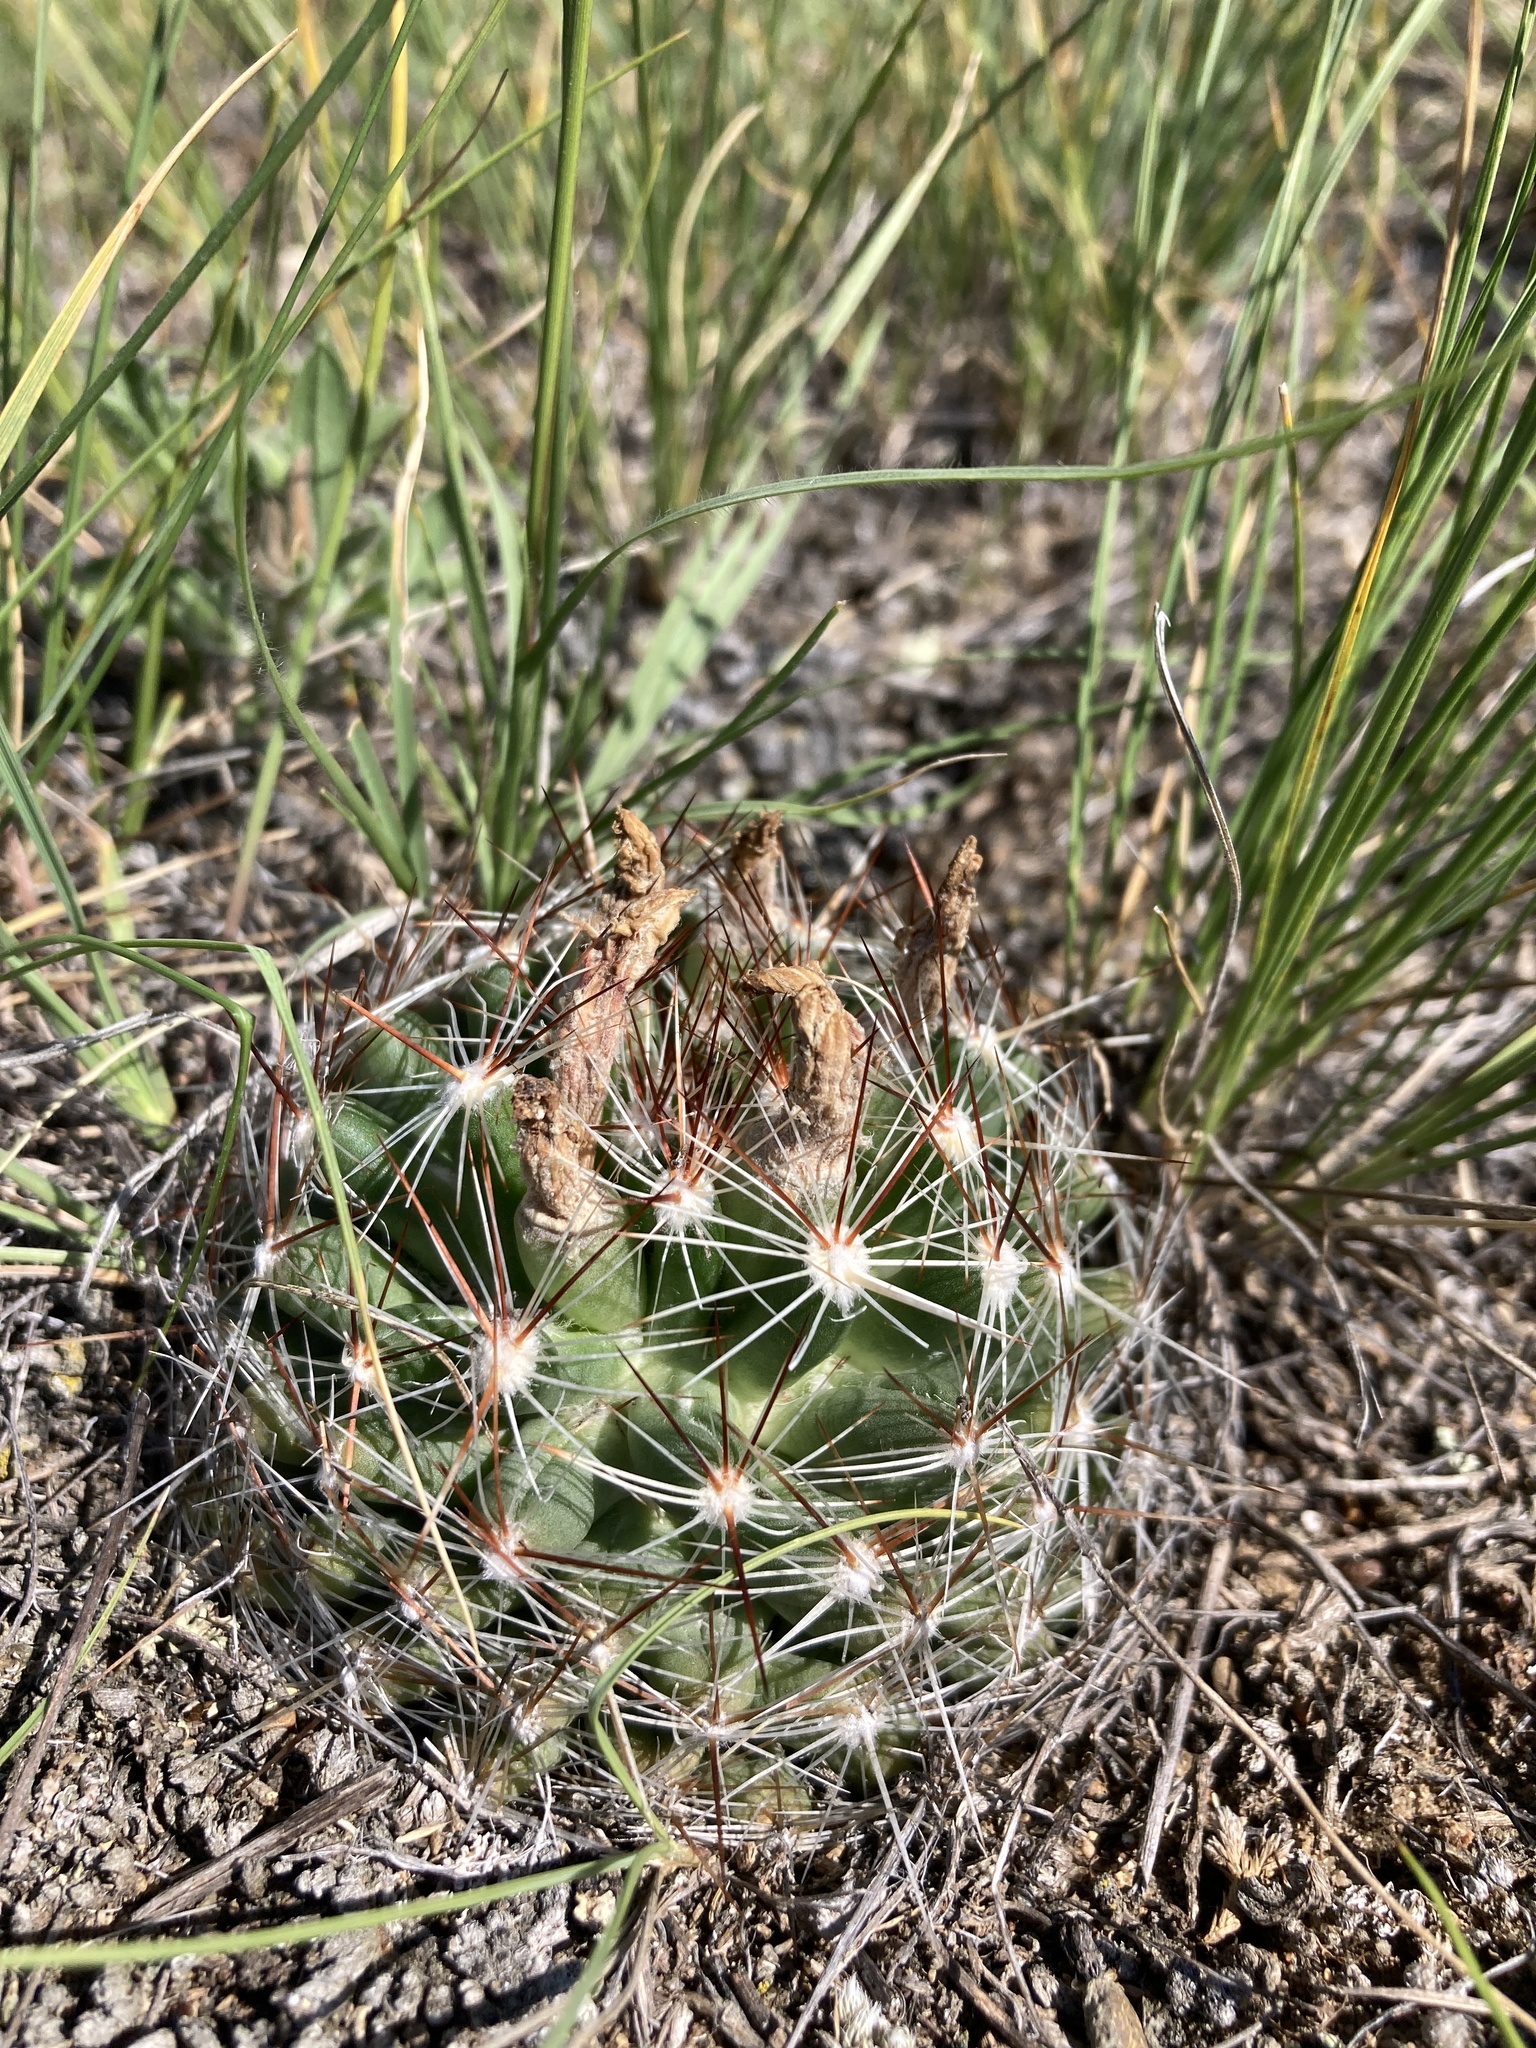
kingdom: Plantae
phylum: Tracheophyta
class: Magnoliopsida
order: Caryophyllales
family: Cactaceae
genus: Pelecyphora
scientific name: Pelecyphora vivipara
